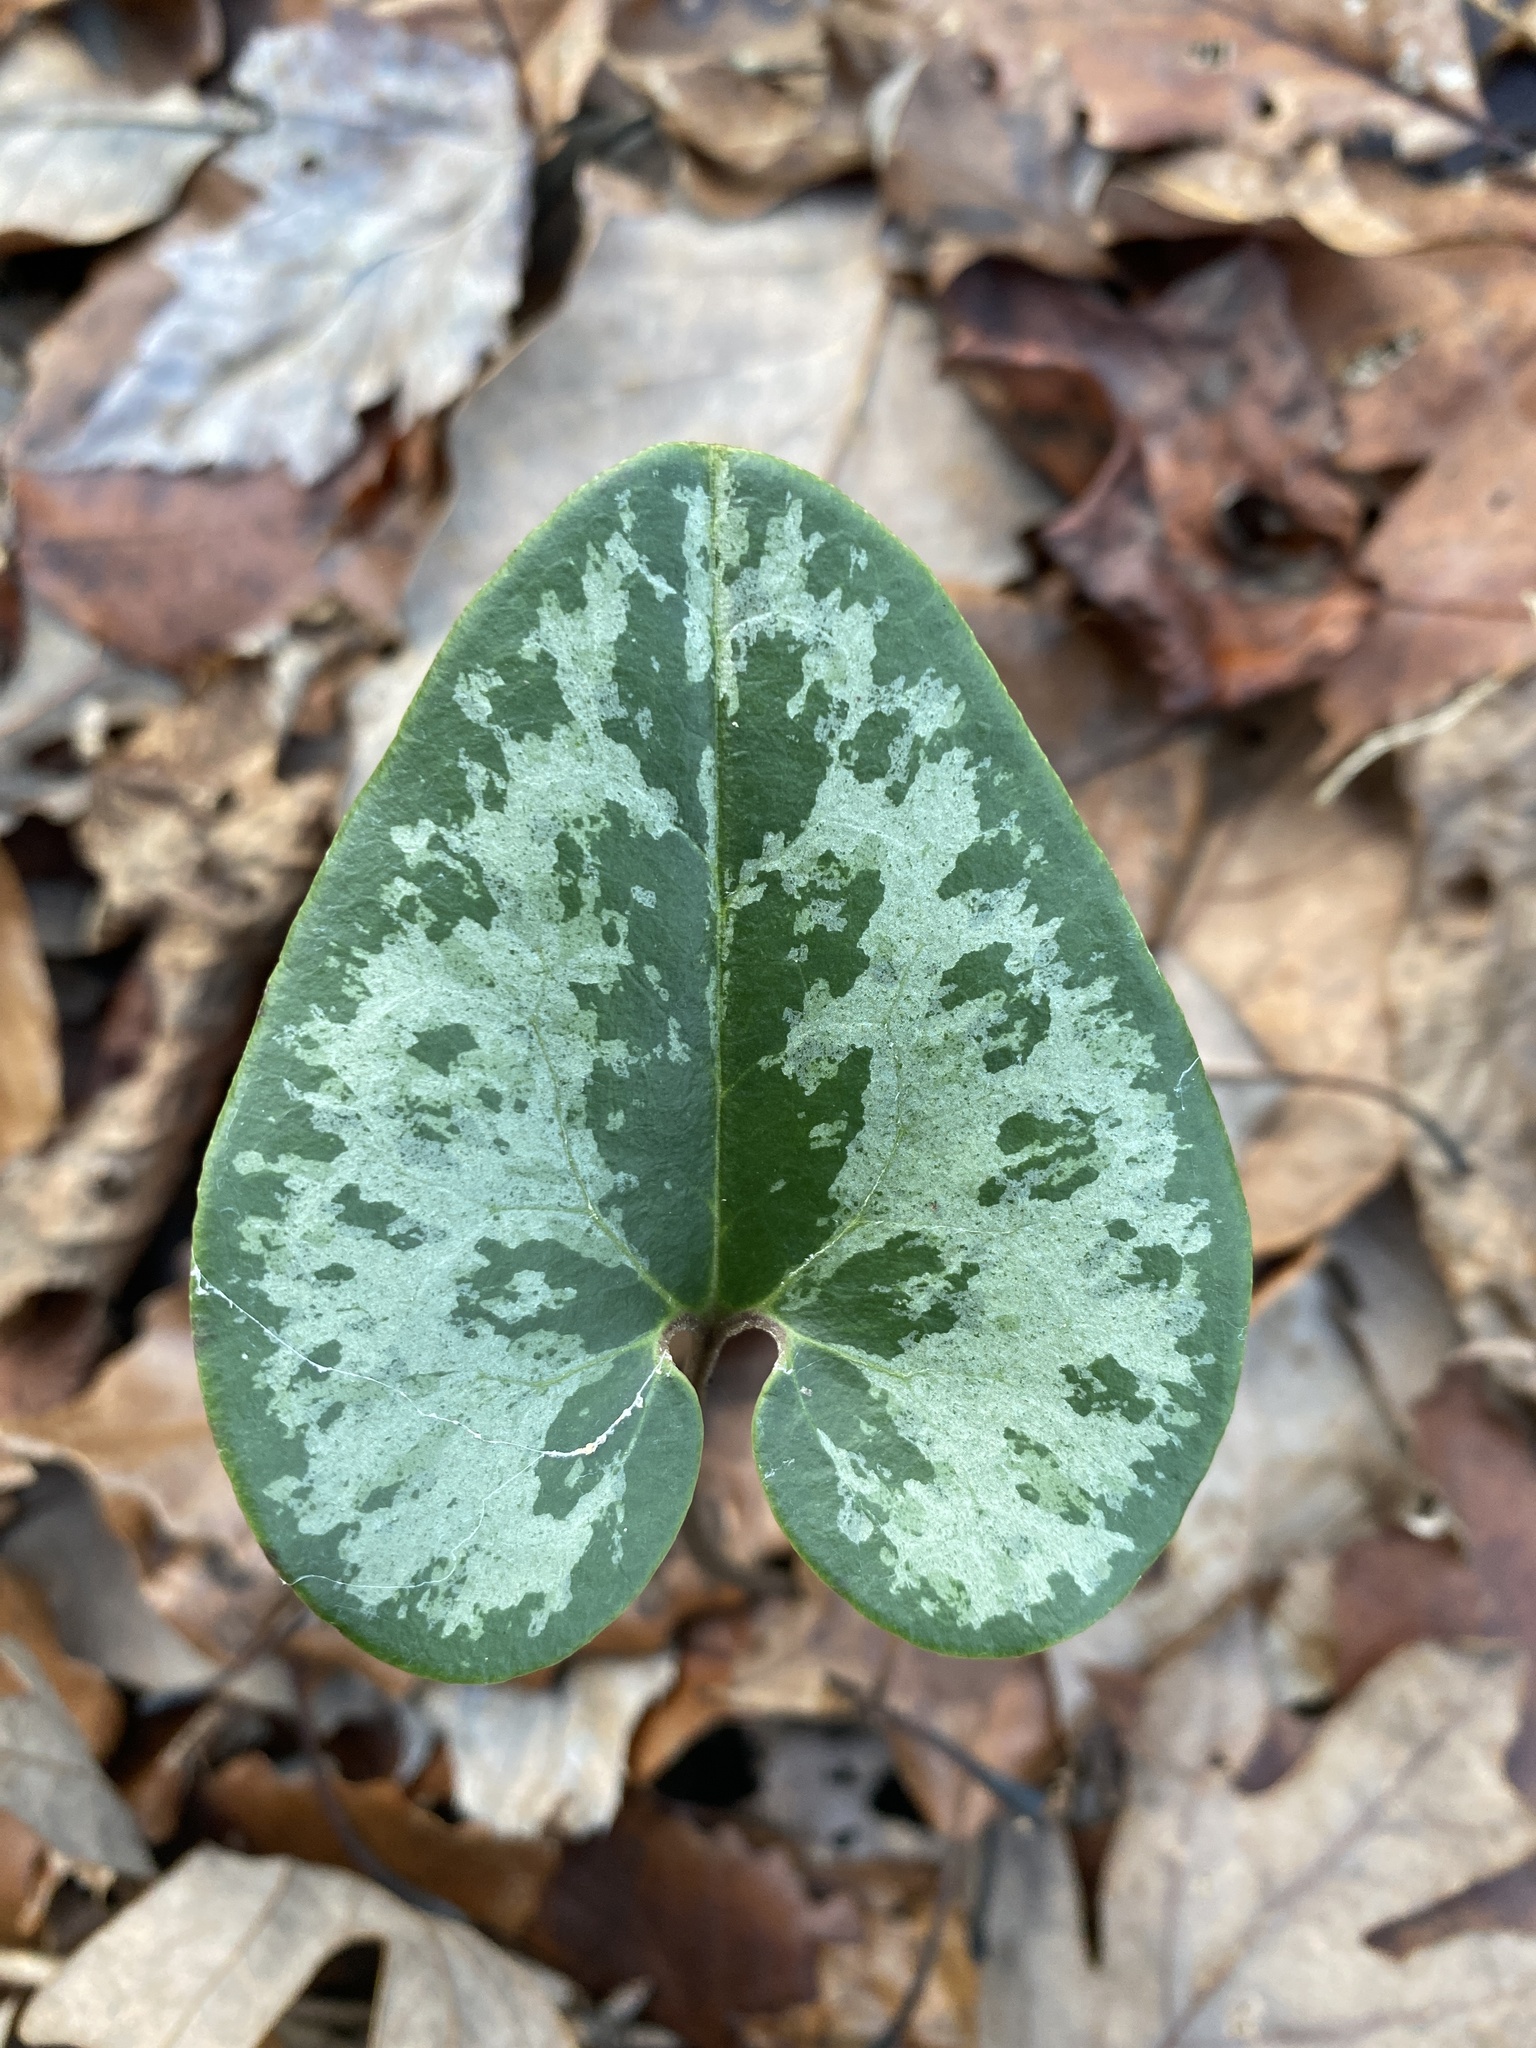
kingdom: Plantae
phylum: Tracheophyta
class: Magnoliopsida
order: Piperales
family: Aristolochiaceae
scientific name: Aristolochiaceae
